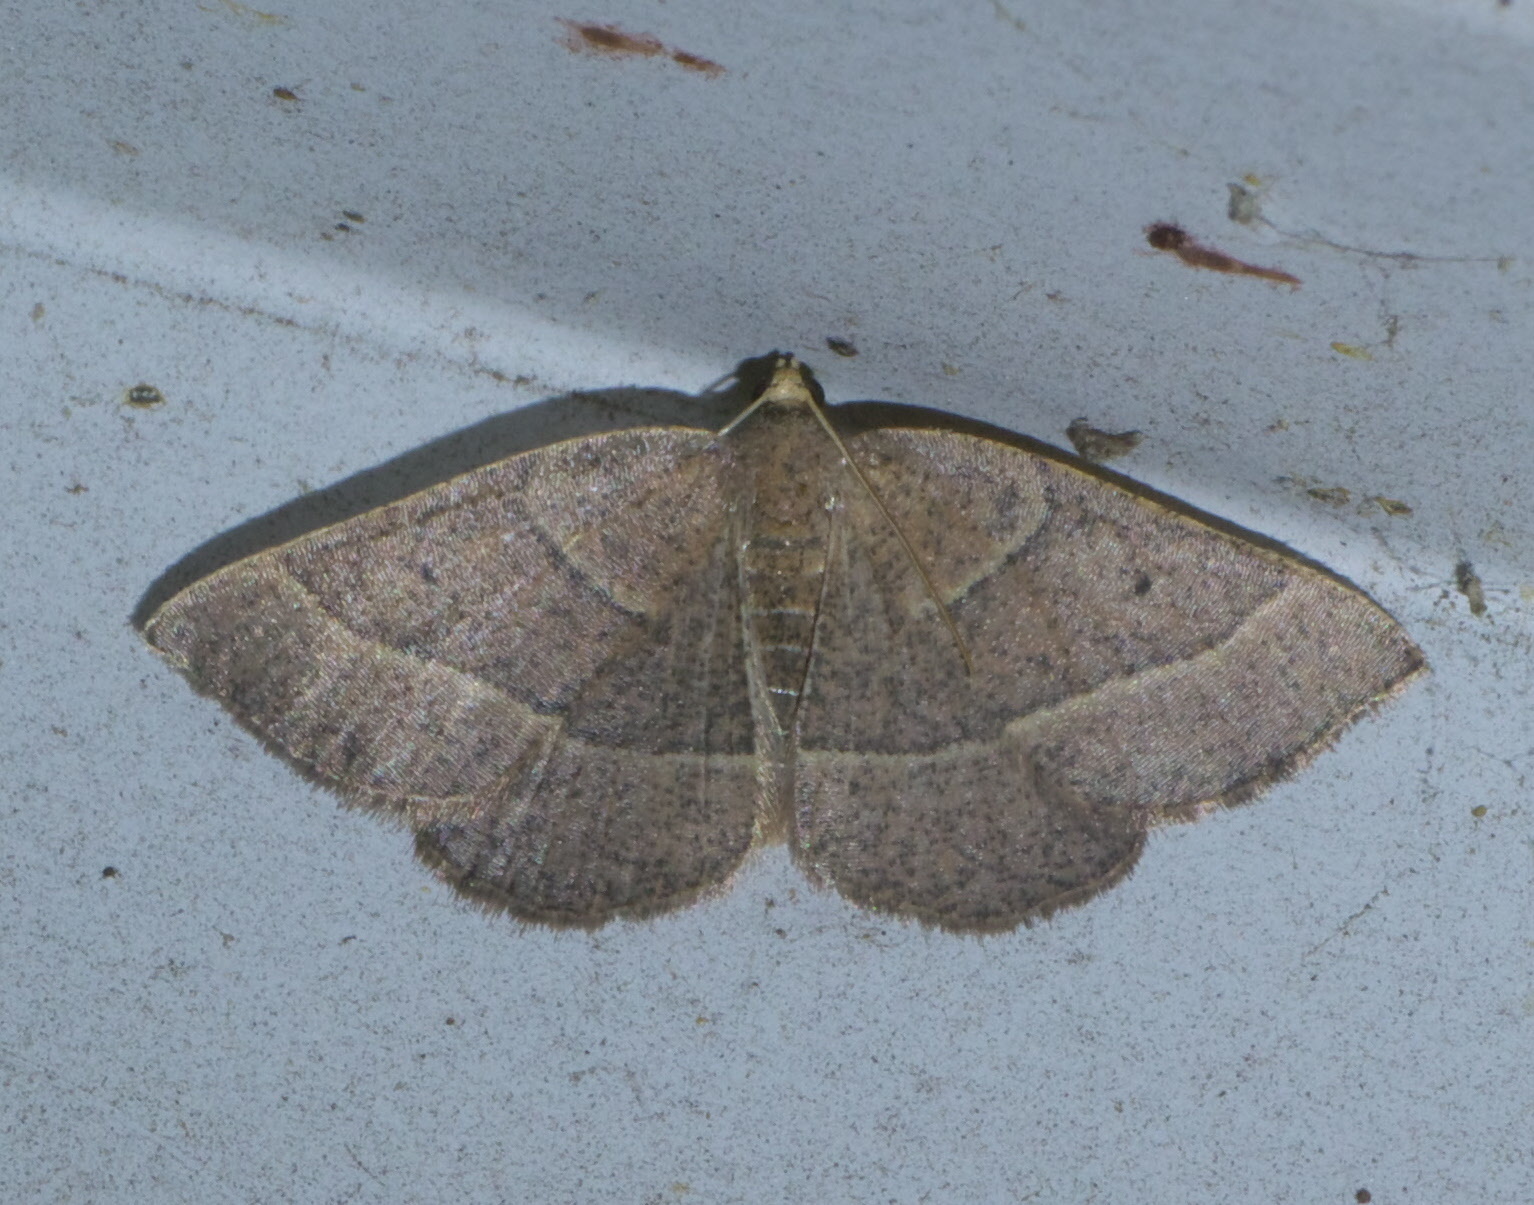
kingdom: Animalia
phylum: Arthropoda
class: Insecta
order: Lepidoptera
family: Geometridae
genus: Episemasia
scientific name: Episemasia cervinaria
